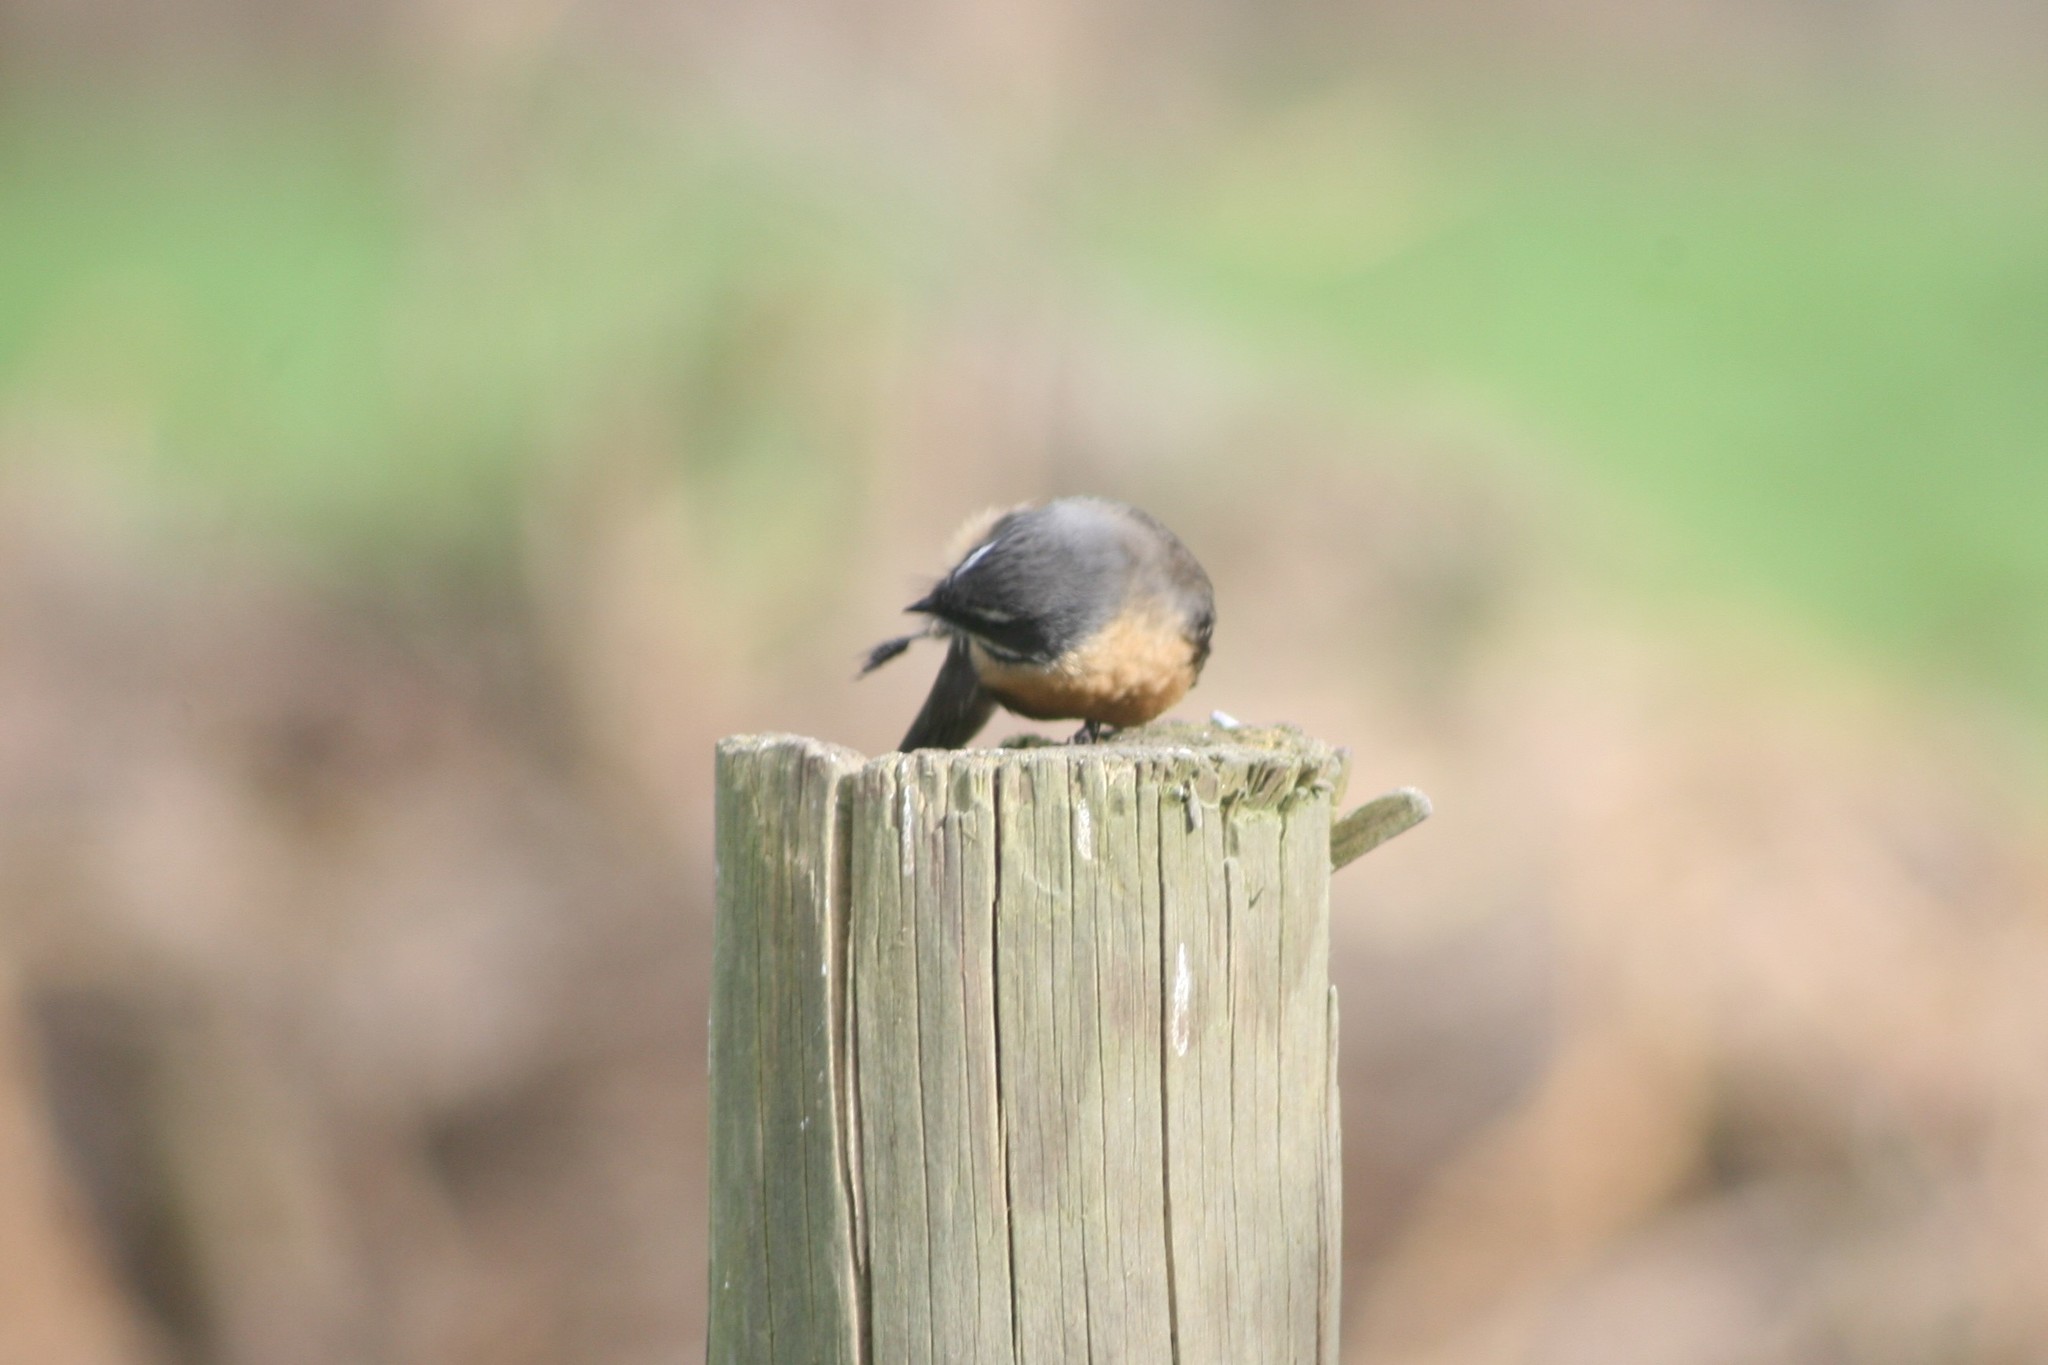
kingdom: Animalia
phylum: Chordata
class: Aves
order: Passeriformes
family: Rhipiduridae
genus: Rhipidura
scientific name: Rhipidura fuliginosa
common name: New zealand fantail
